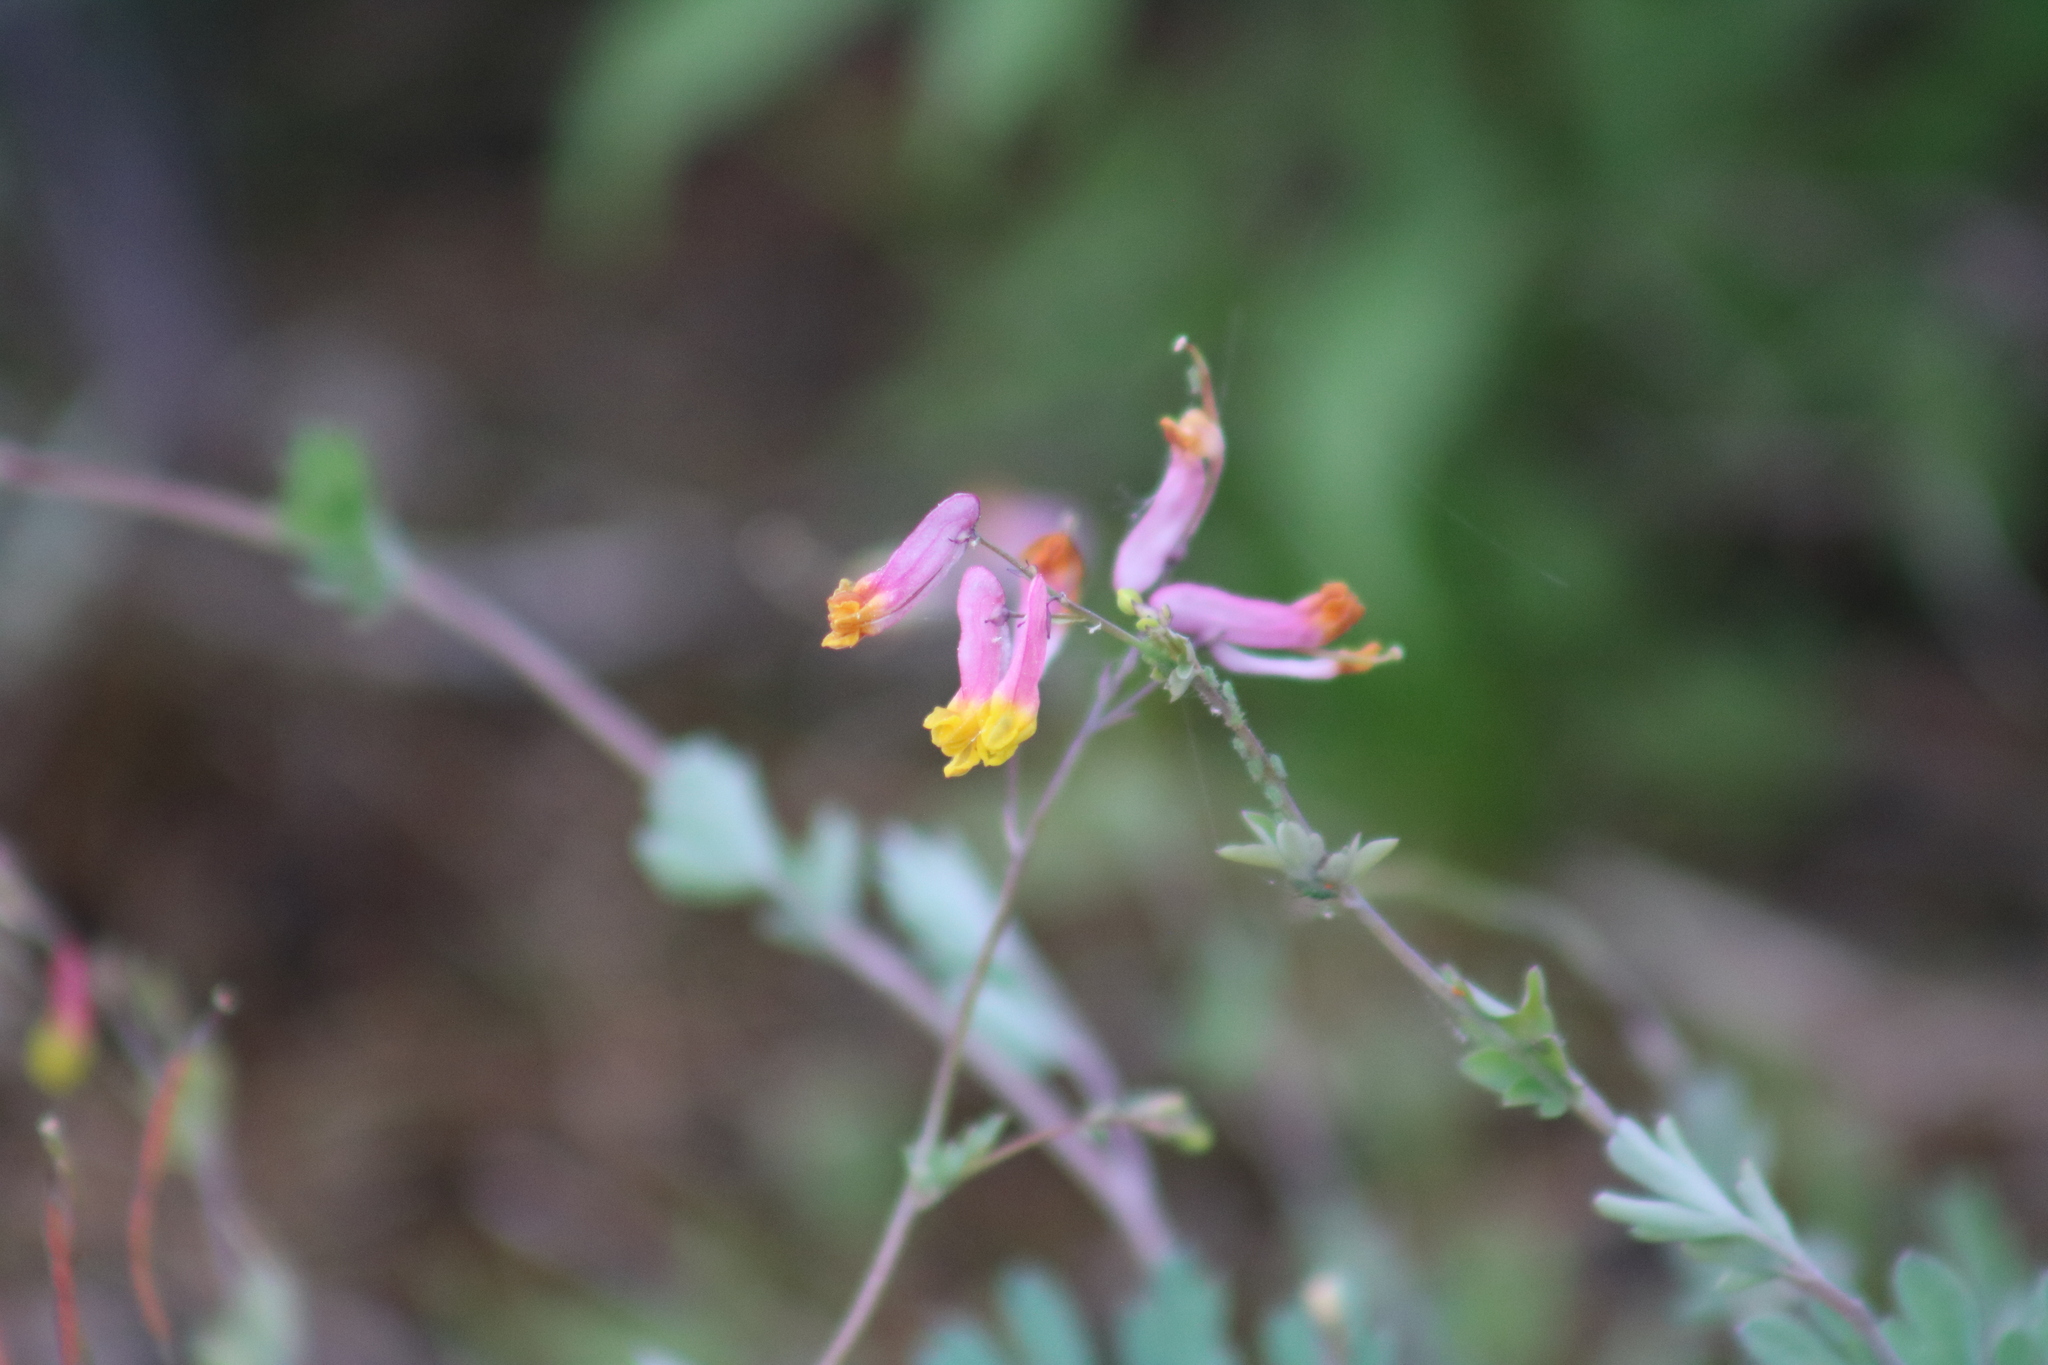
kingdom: Plantae
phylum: Tracheophyta
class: Magnoliopsida
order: Ranunculales
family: Papaveraceae
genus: Capnoides
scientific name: Capnoides sempervirens
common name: Rock harlequin
